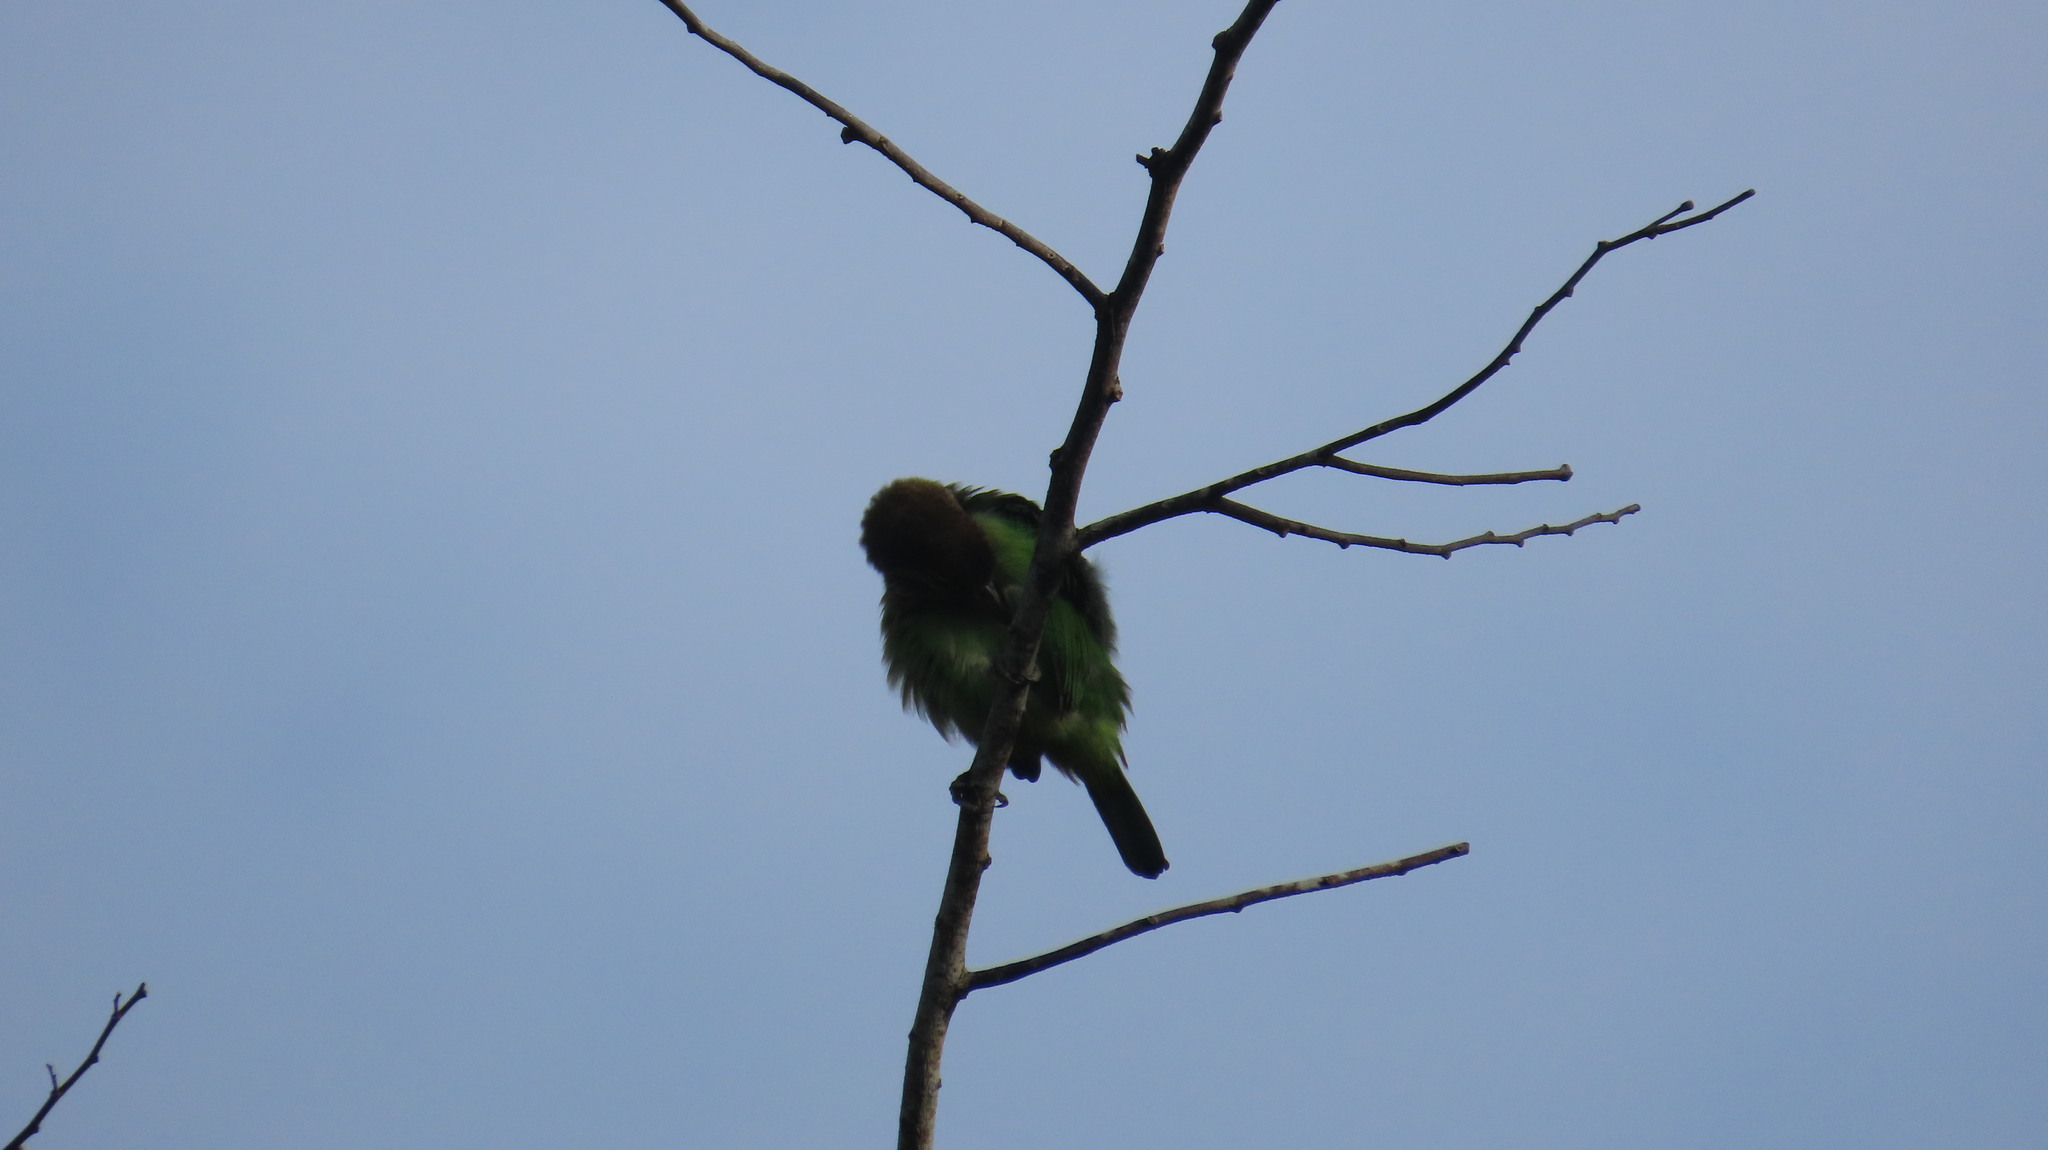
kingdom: Animalia
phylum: Chordata
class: Aves
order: Piciformes
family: Megalaimidae
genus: Psilopogon
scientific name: Psilopogon viridis
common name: White-cheeked barbet
